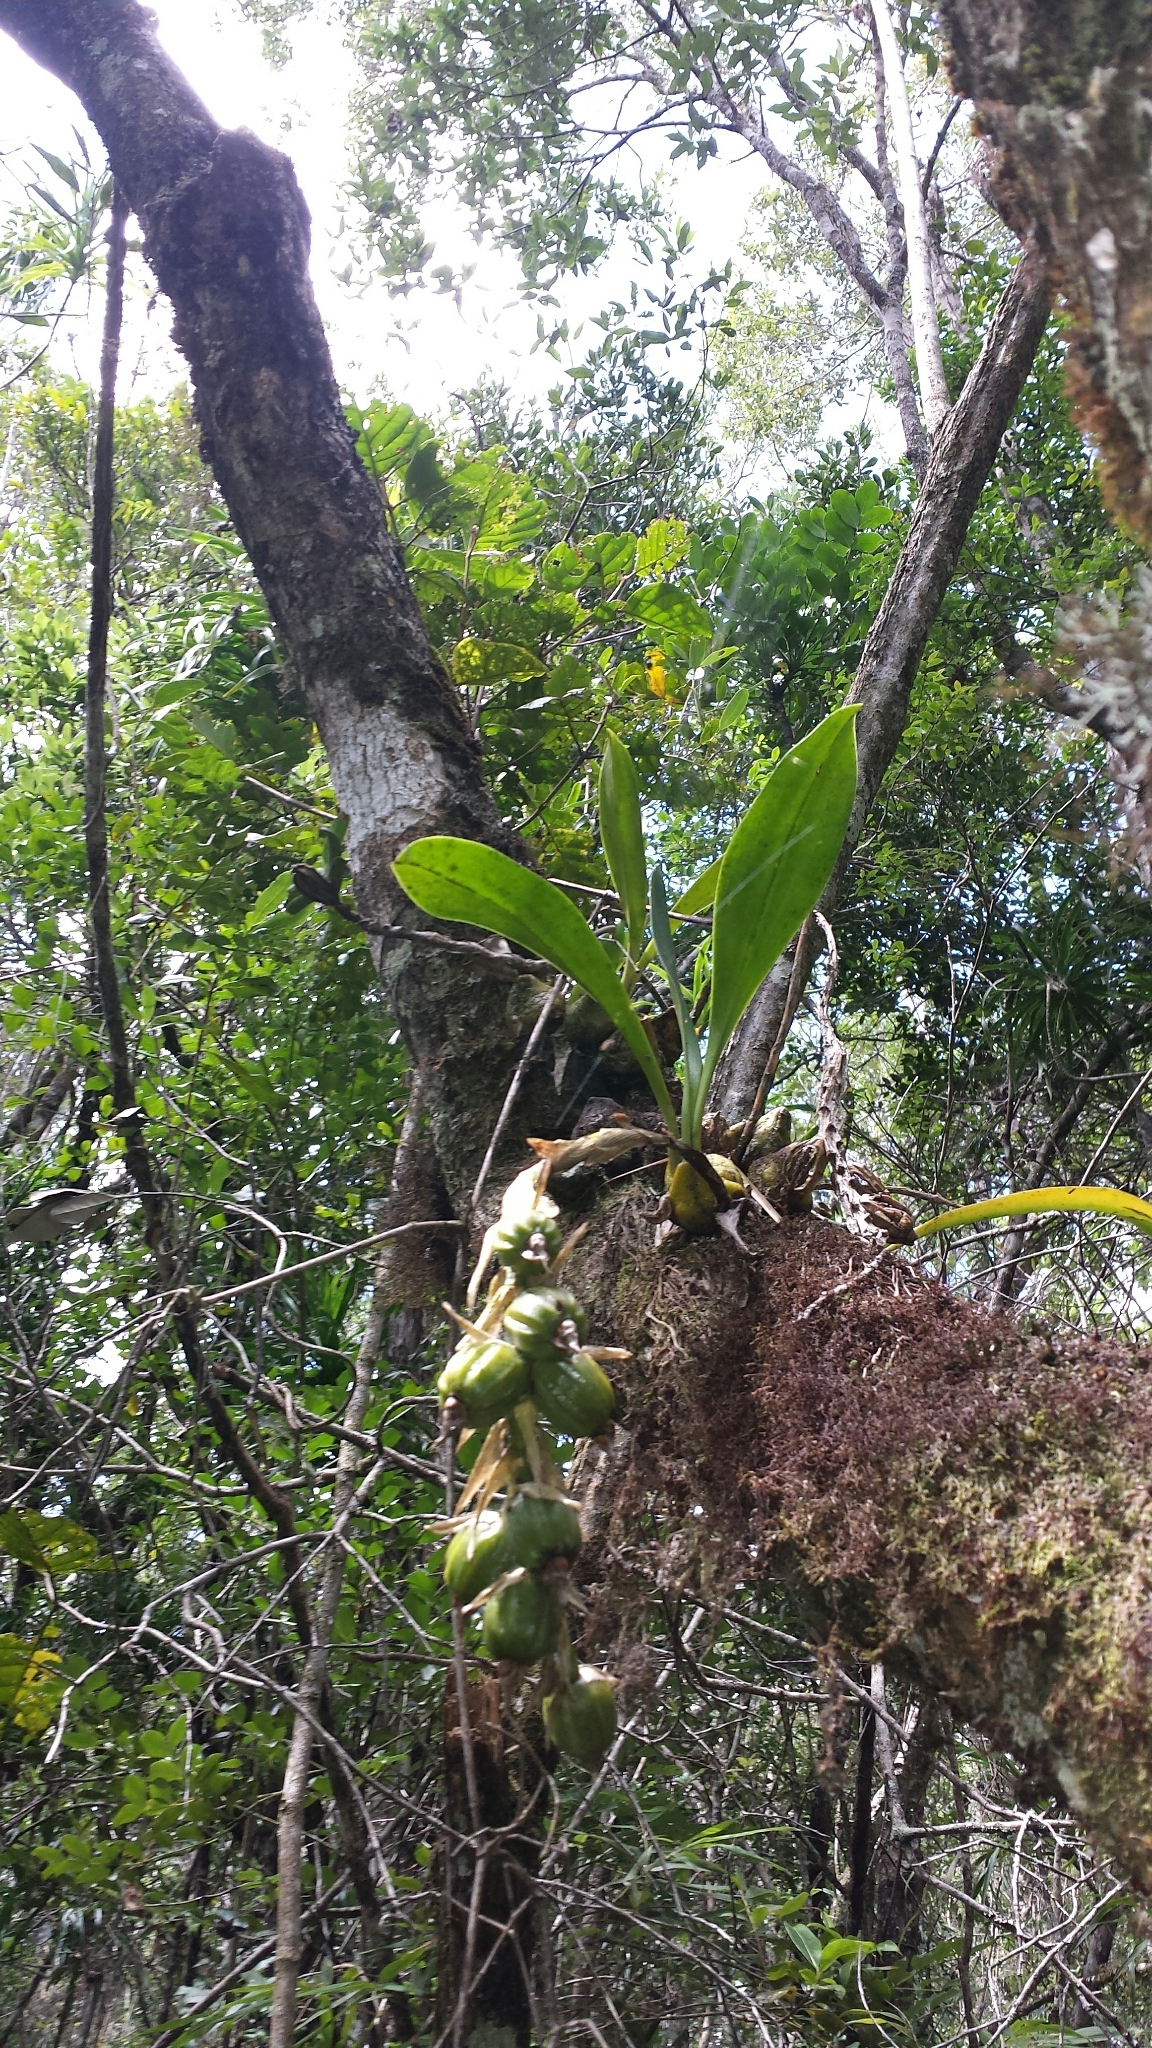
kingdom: Plantae
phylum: Tracheophyta
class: Liliopsida
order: Asparagales
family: Orchidaceae
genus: Bulbophyllum
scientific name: Bulbophyllum sulfureum
